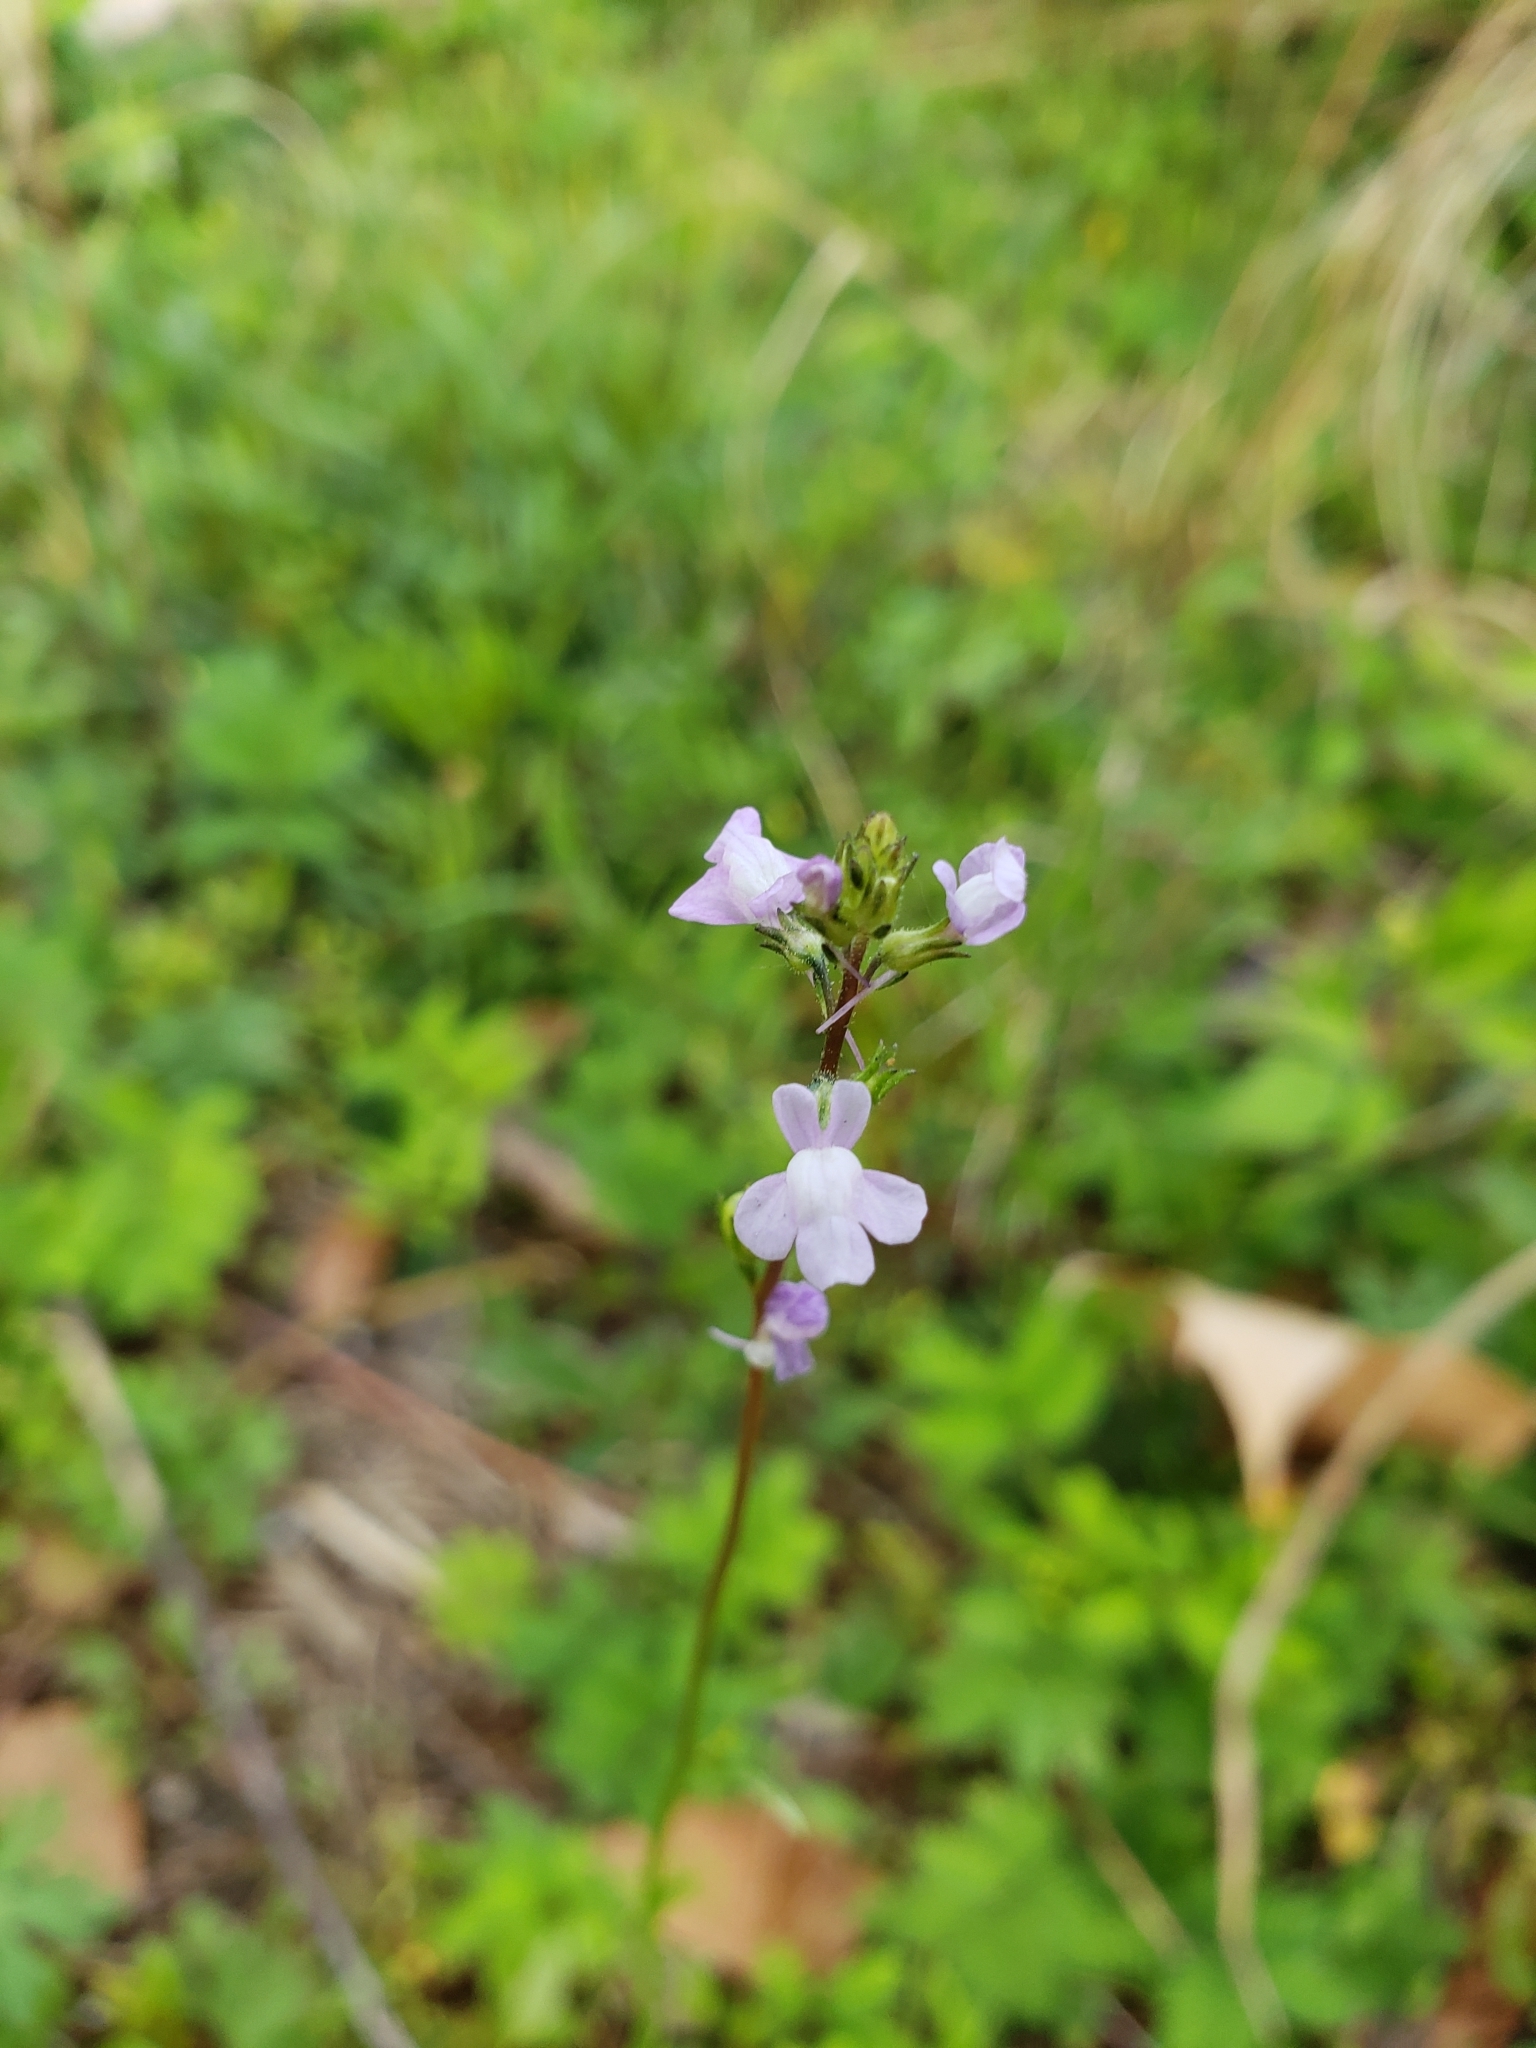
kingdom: Plantae
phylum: Tracheophyta
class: Magnoliopsida
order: Lamiales
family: Plantaginaceae
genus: Nuttallanthus
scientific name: Nuttallanthus canadensis
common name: Blue toadflax
